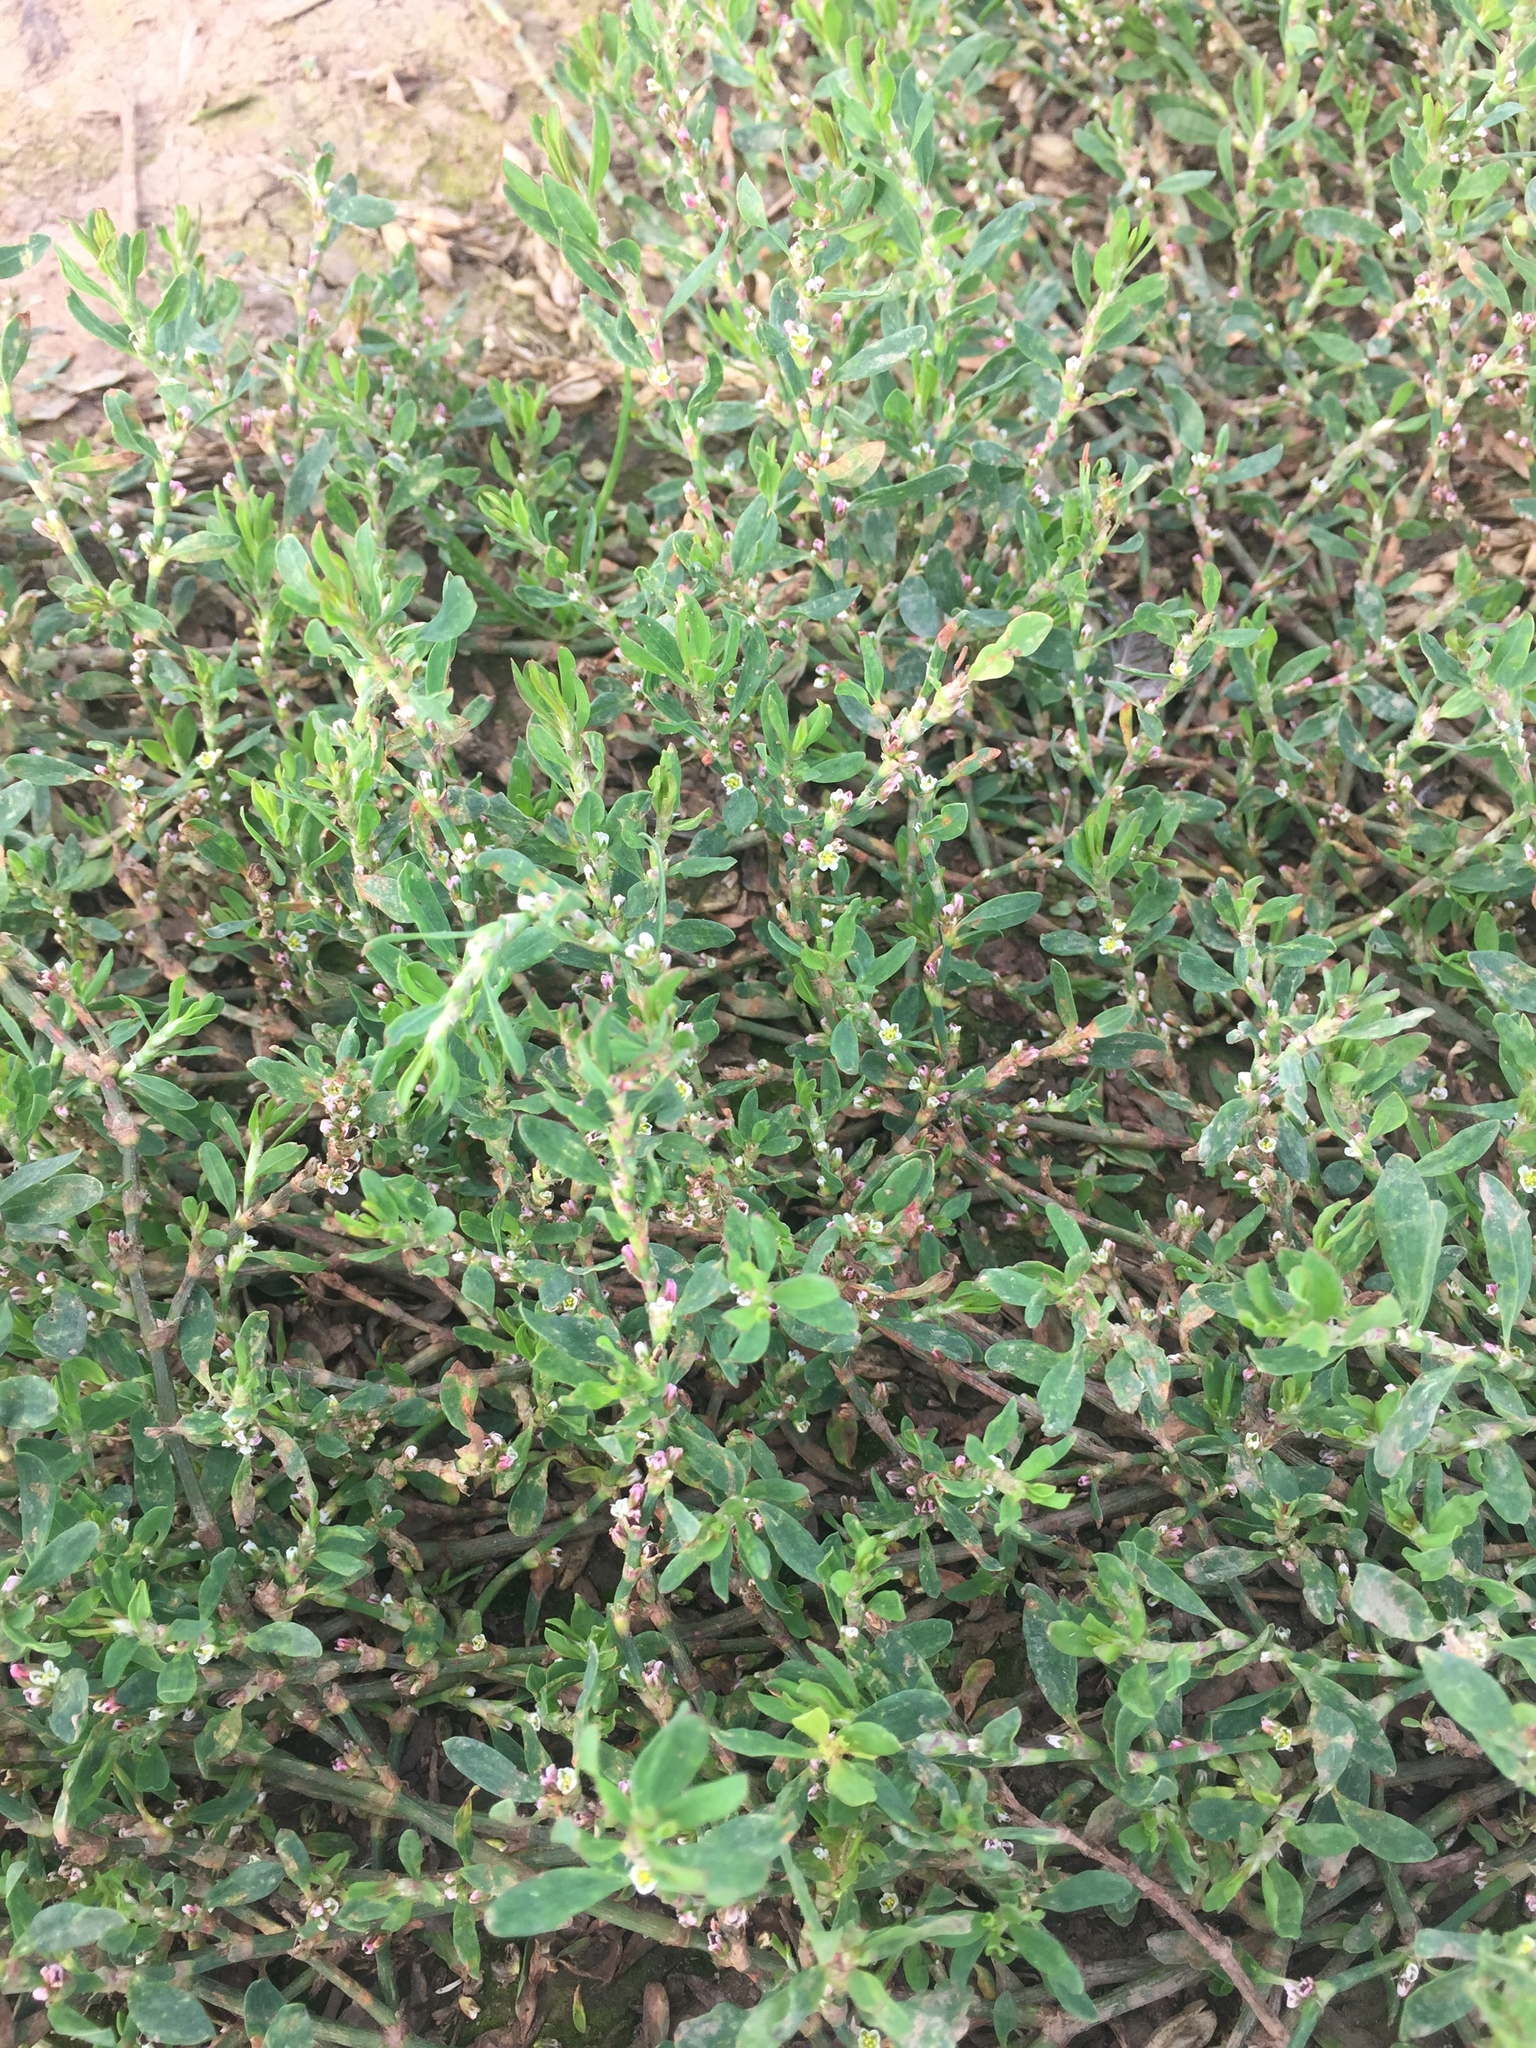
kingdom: Plantae
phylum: Tracheophyta
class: Magnoliopsida
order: Caryophyllales
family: Polygonaceae
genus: Polygonum
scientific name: Polygonum aviculare
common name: Prostrate knotweed
